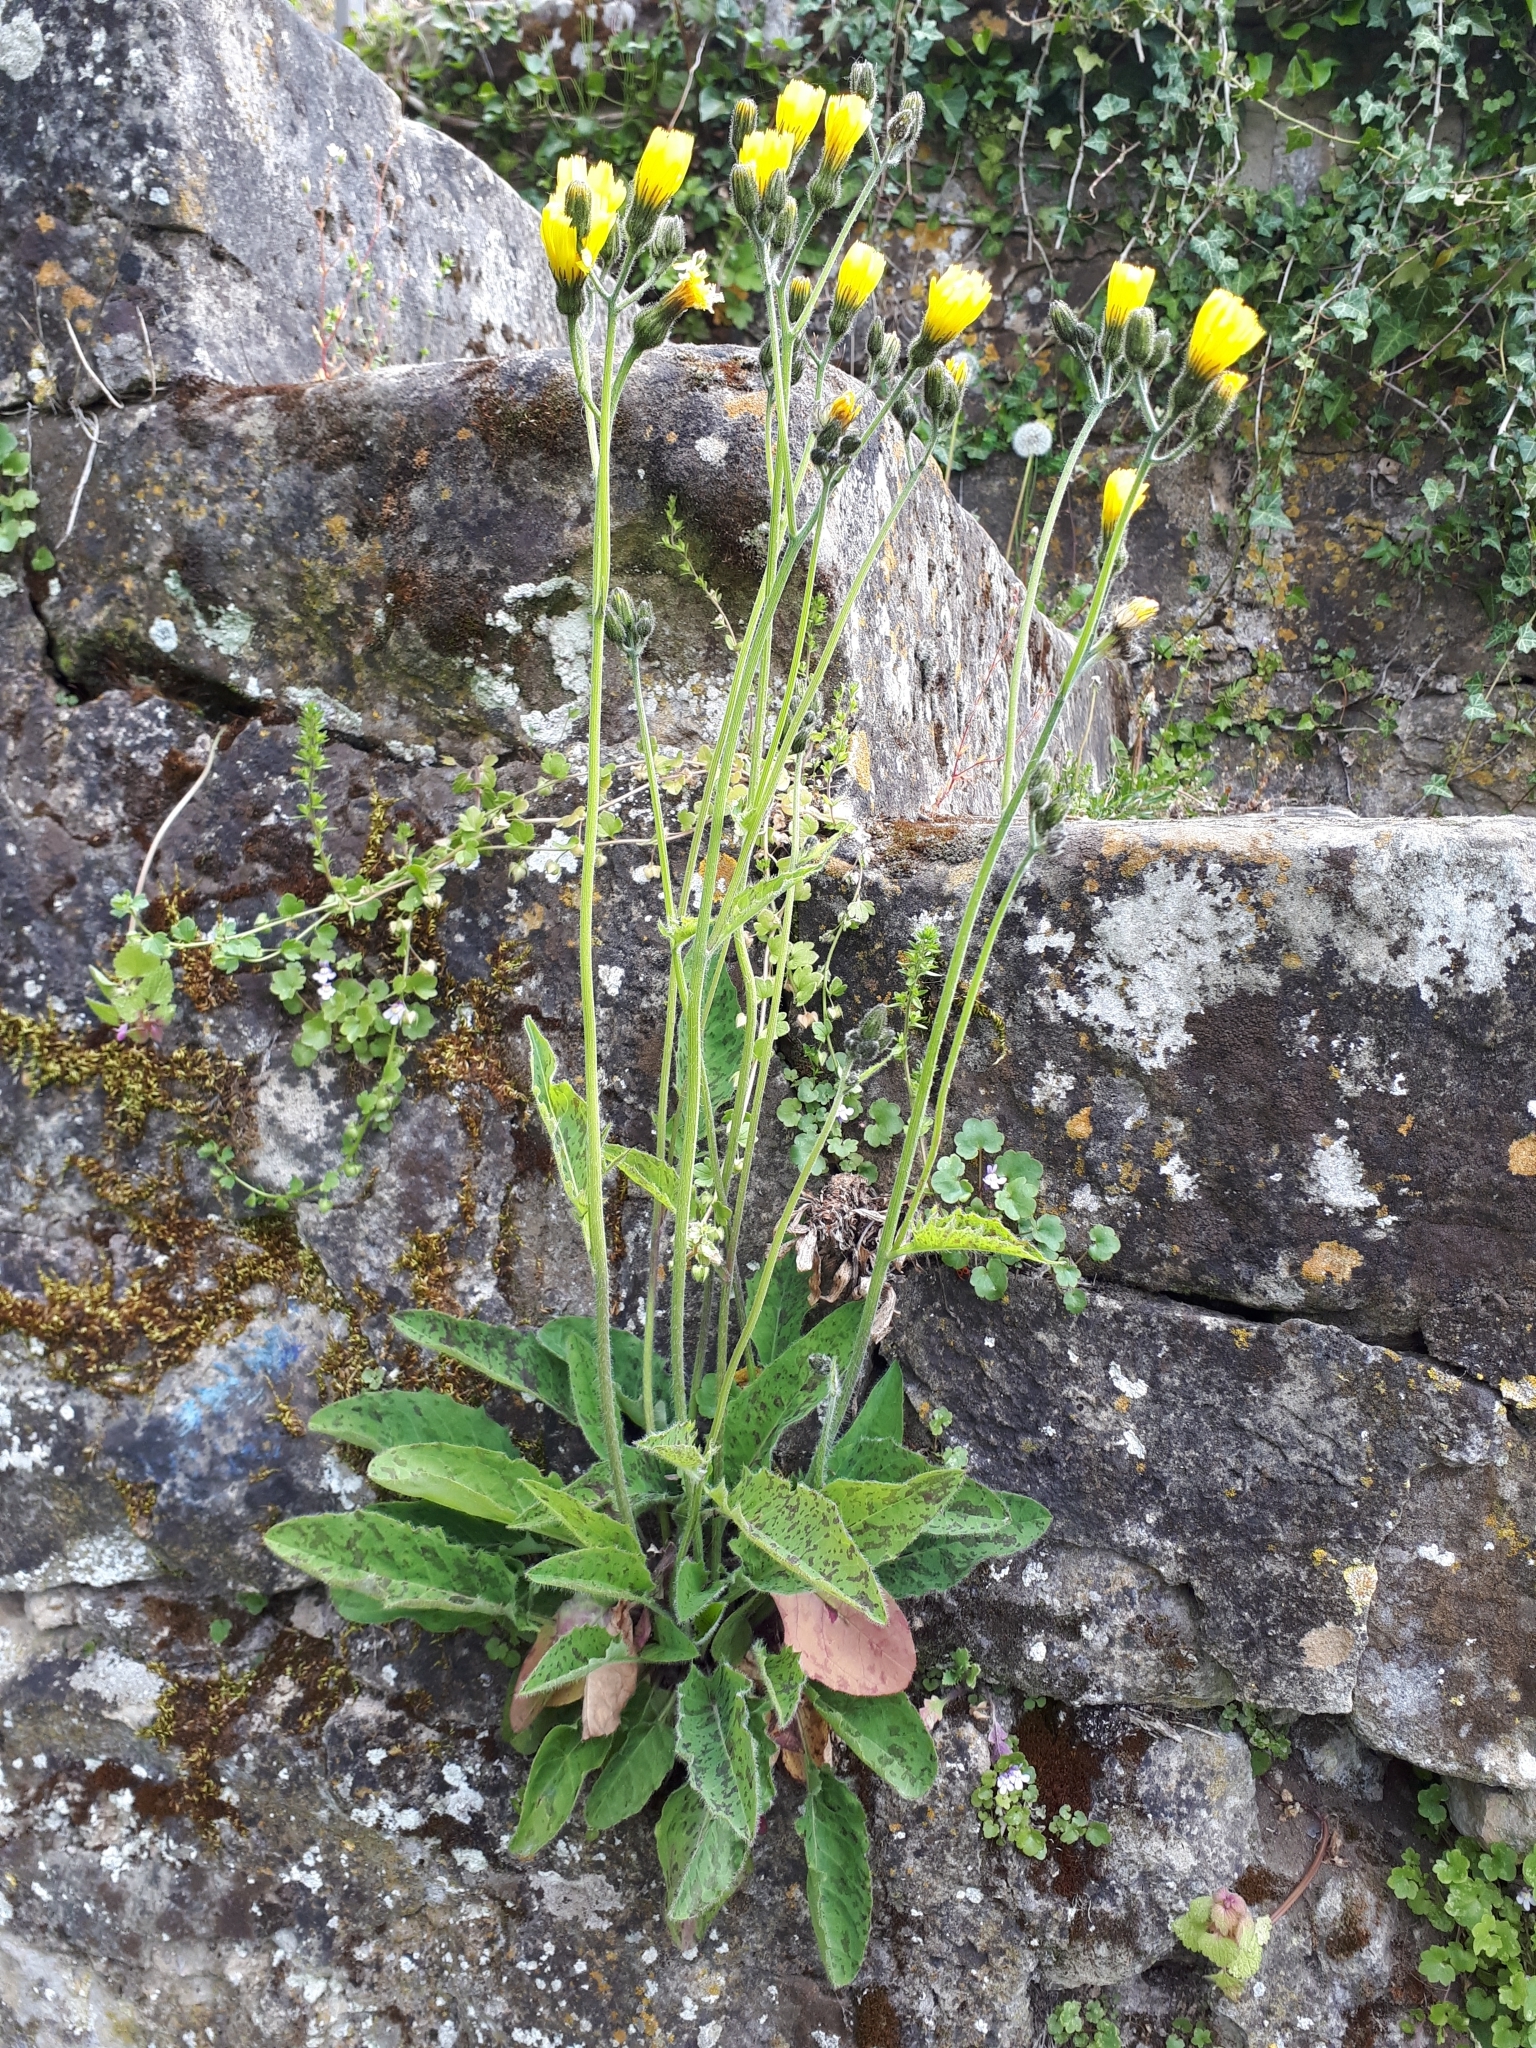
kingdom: Plantae
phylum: Tracheophyta
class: Magnoliopsida
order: Asterales
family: Asteraceae
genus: Hieracium
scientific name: Hieracium maculatum
